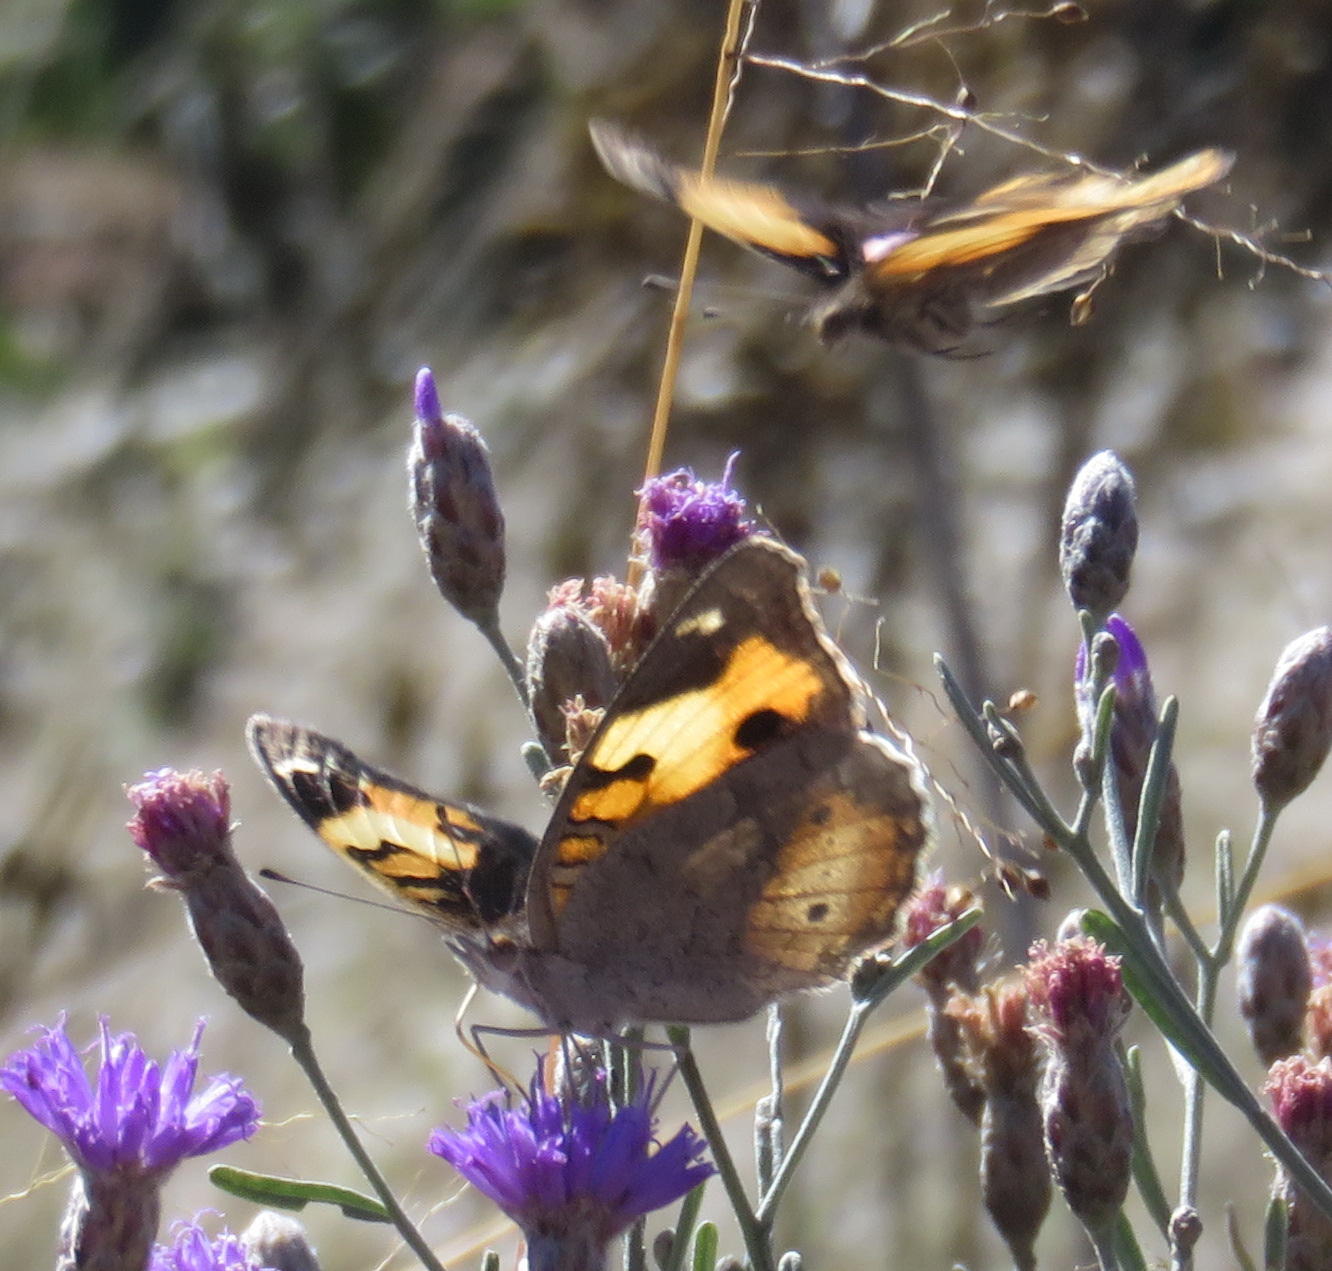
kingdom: Animalia
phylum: Arthropoda
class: Insecta
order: Lepidoptera
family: Nymphalidae
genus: Junonia
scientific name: Junonia hierta
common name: Yellow pansy
